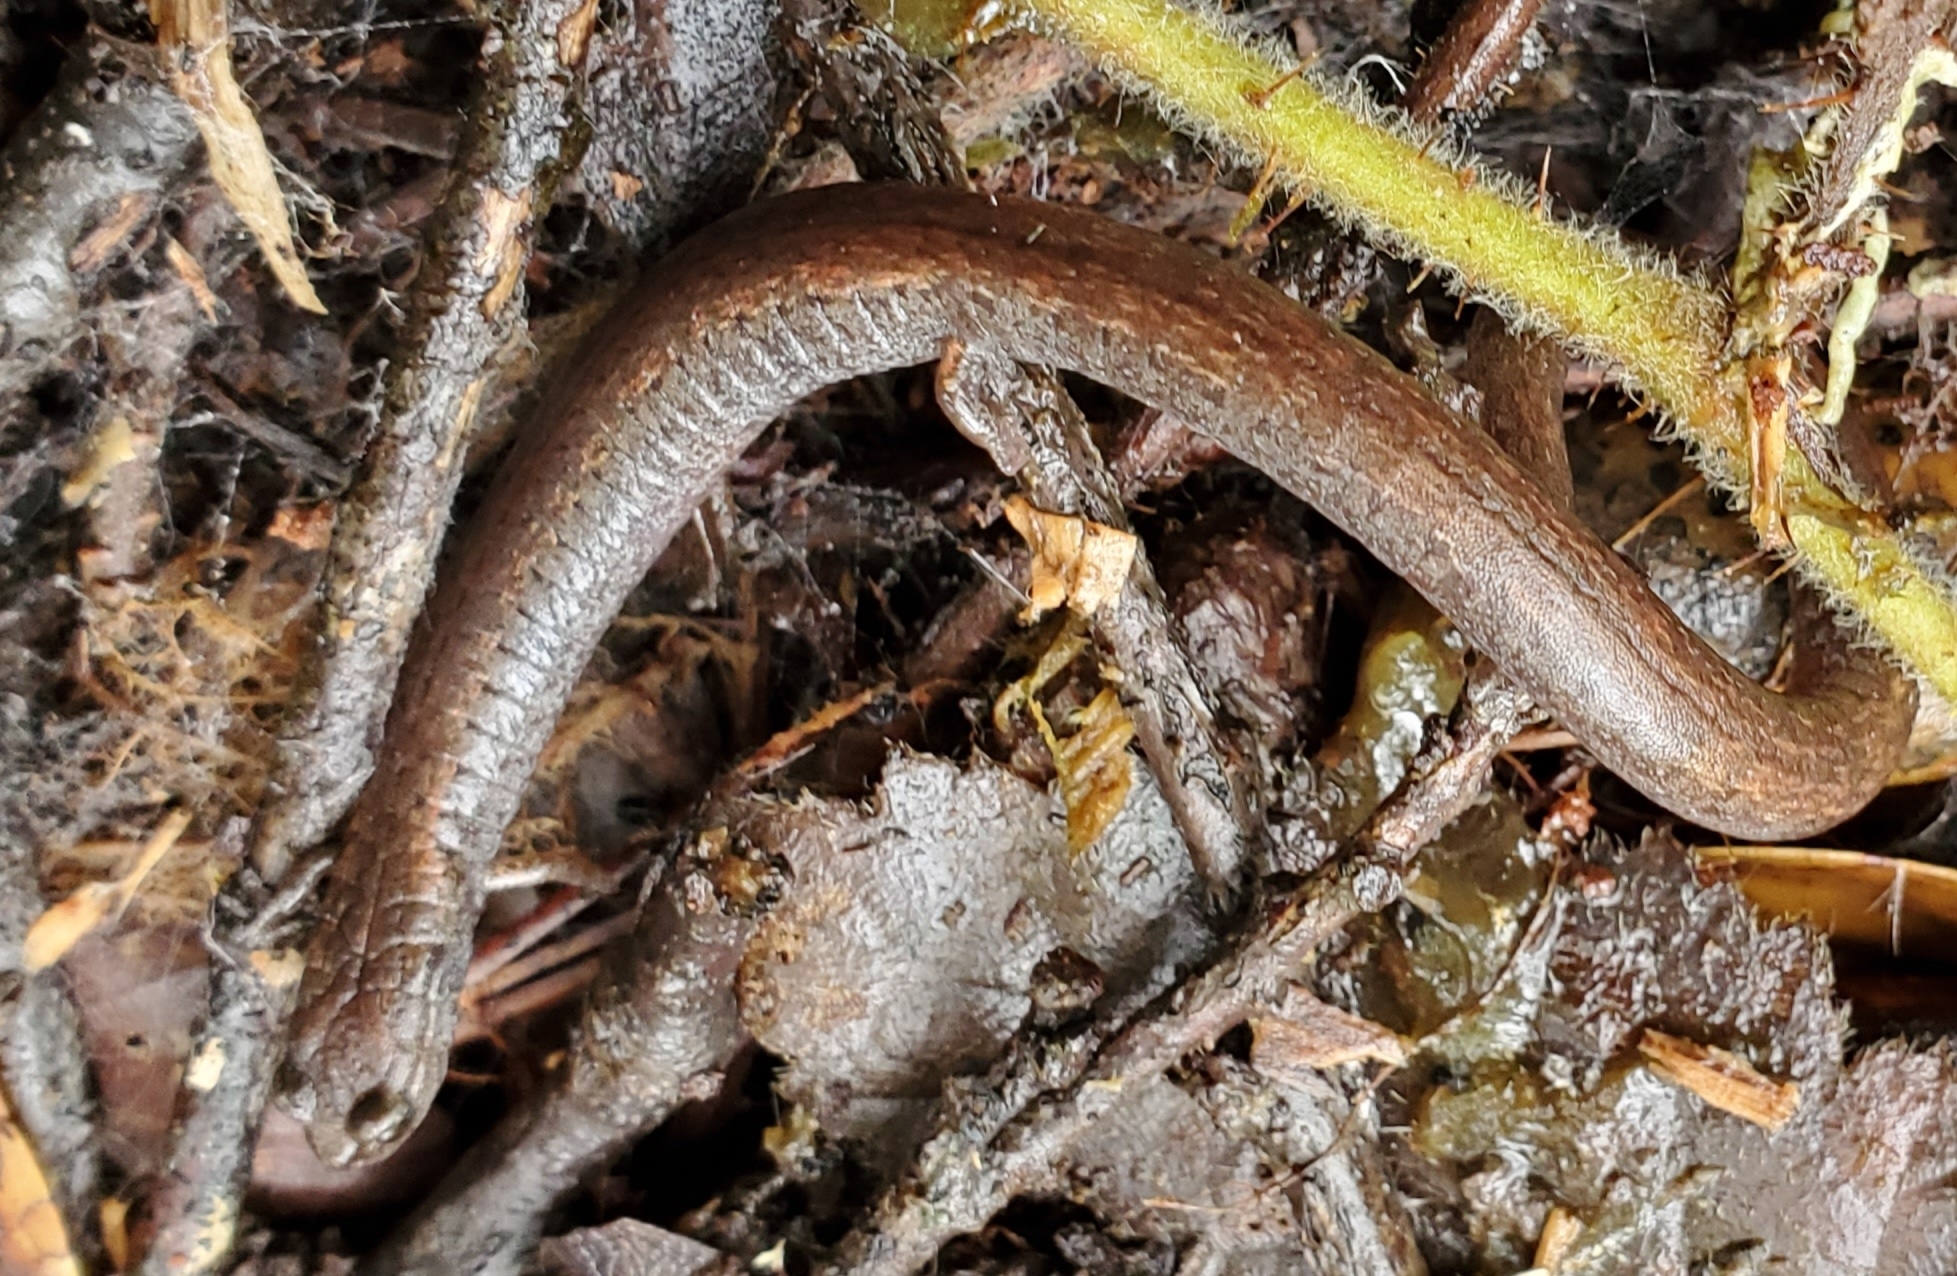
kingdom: Animalia
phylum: Chordata
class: Amphibia
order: Caudata
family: Plethodontidae
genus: Batrachoseps
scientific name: Batrachoseps attenuatus
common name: California slender salamander
